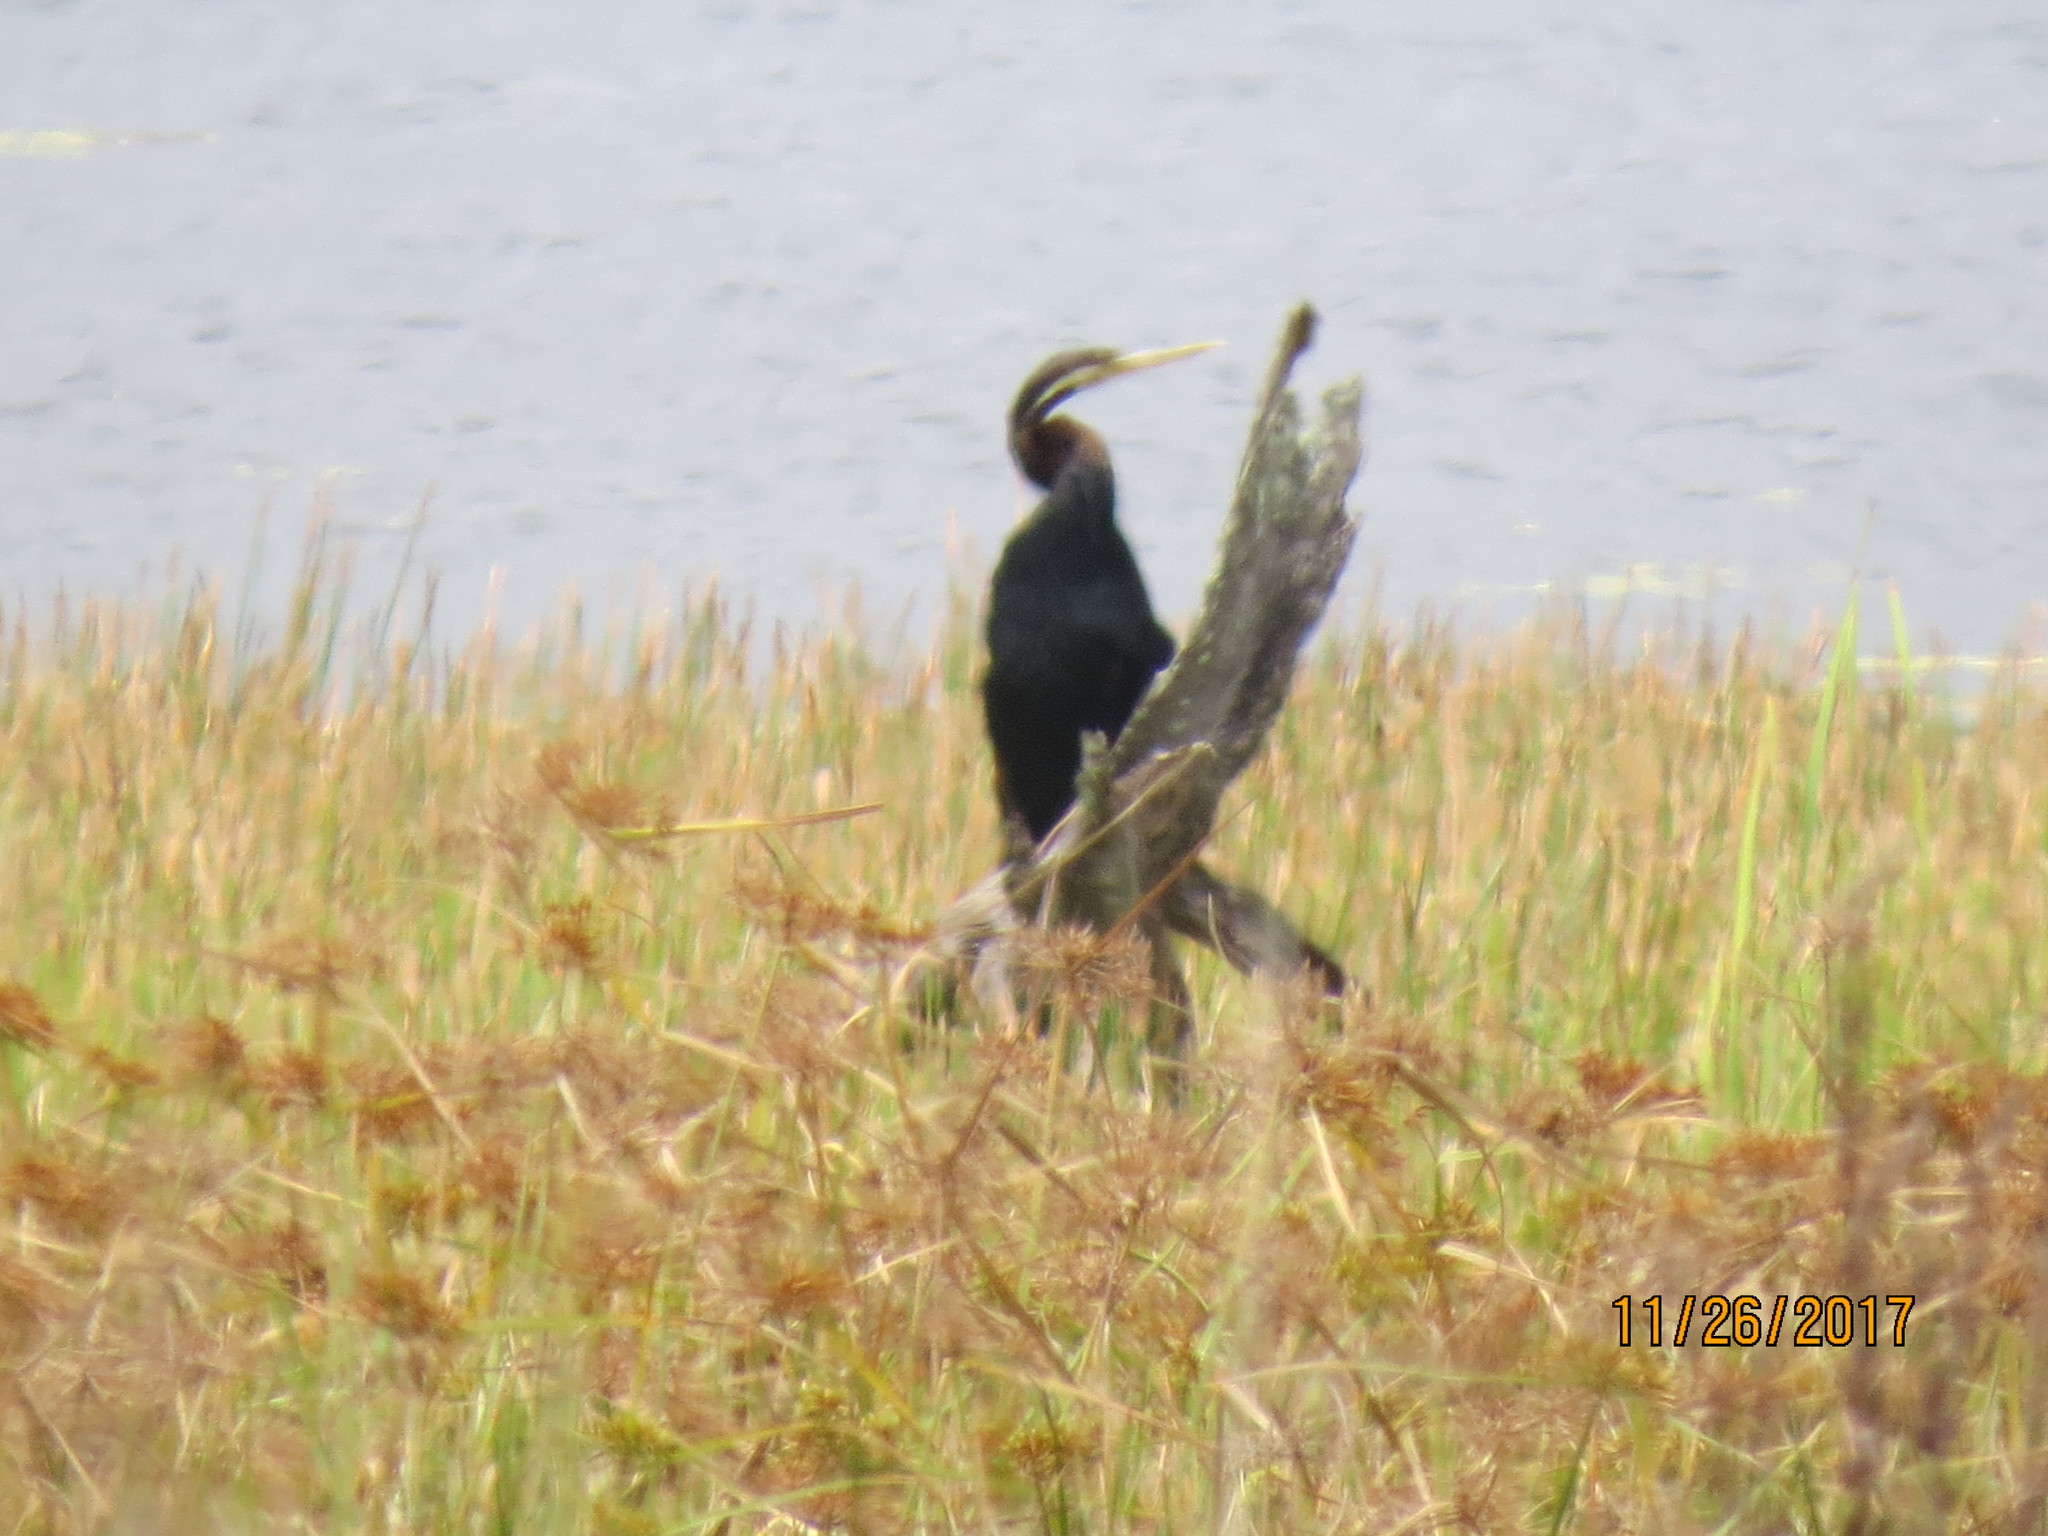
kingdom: Animalia
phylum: Chordata
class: Aves
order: Suliformes
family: Anhingidae
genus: Anhinga
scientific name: Anhinga novaehollandiae
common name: Australasian darter
